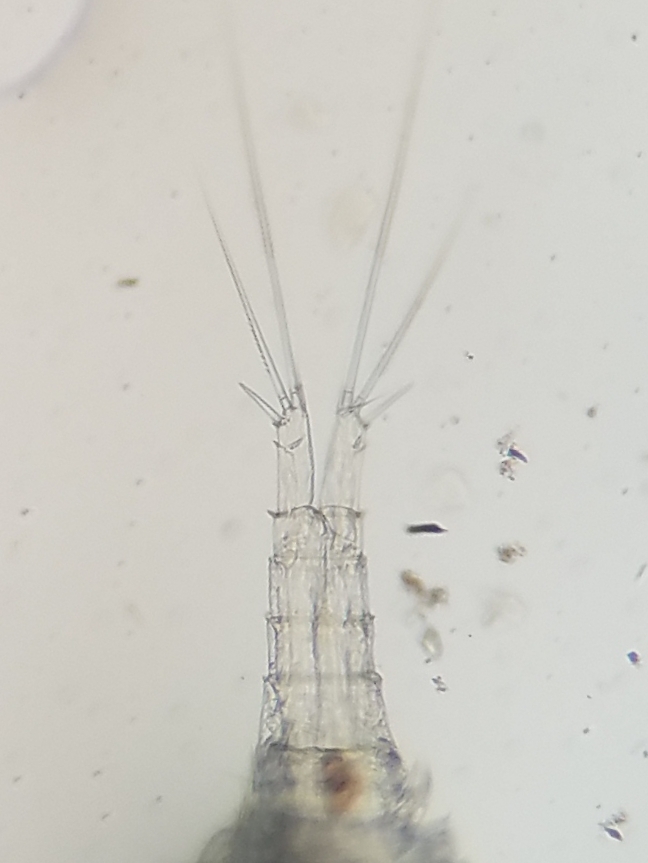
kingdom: Animalia
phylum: Arthropoda
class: Copepoda
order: Cyclopoida
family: Cyclopidae
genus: Paracyclops
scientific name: Paracyclops
